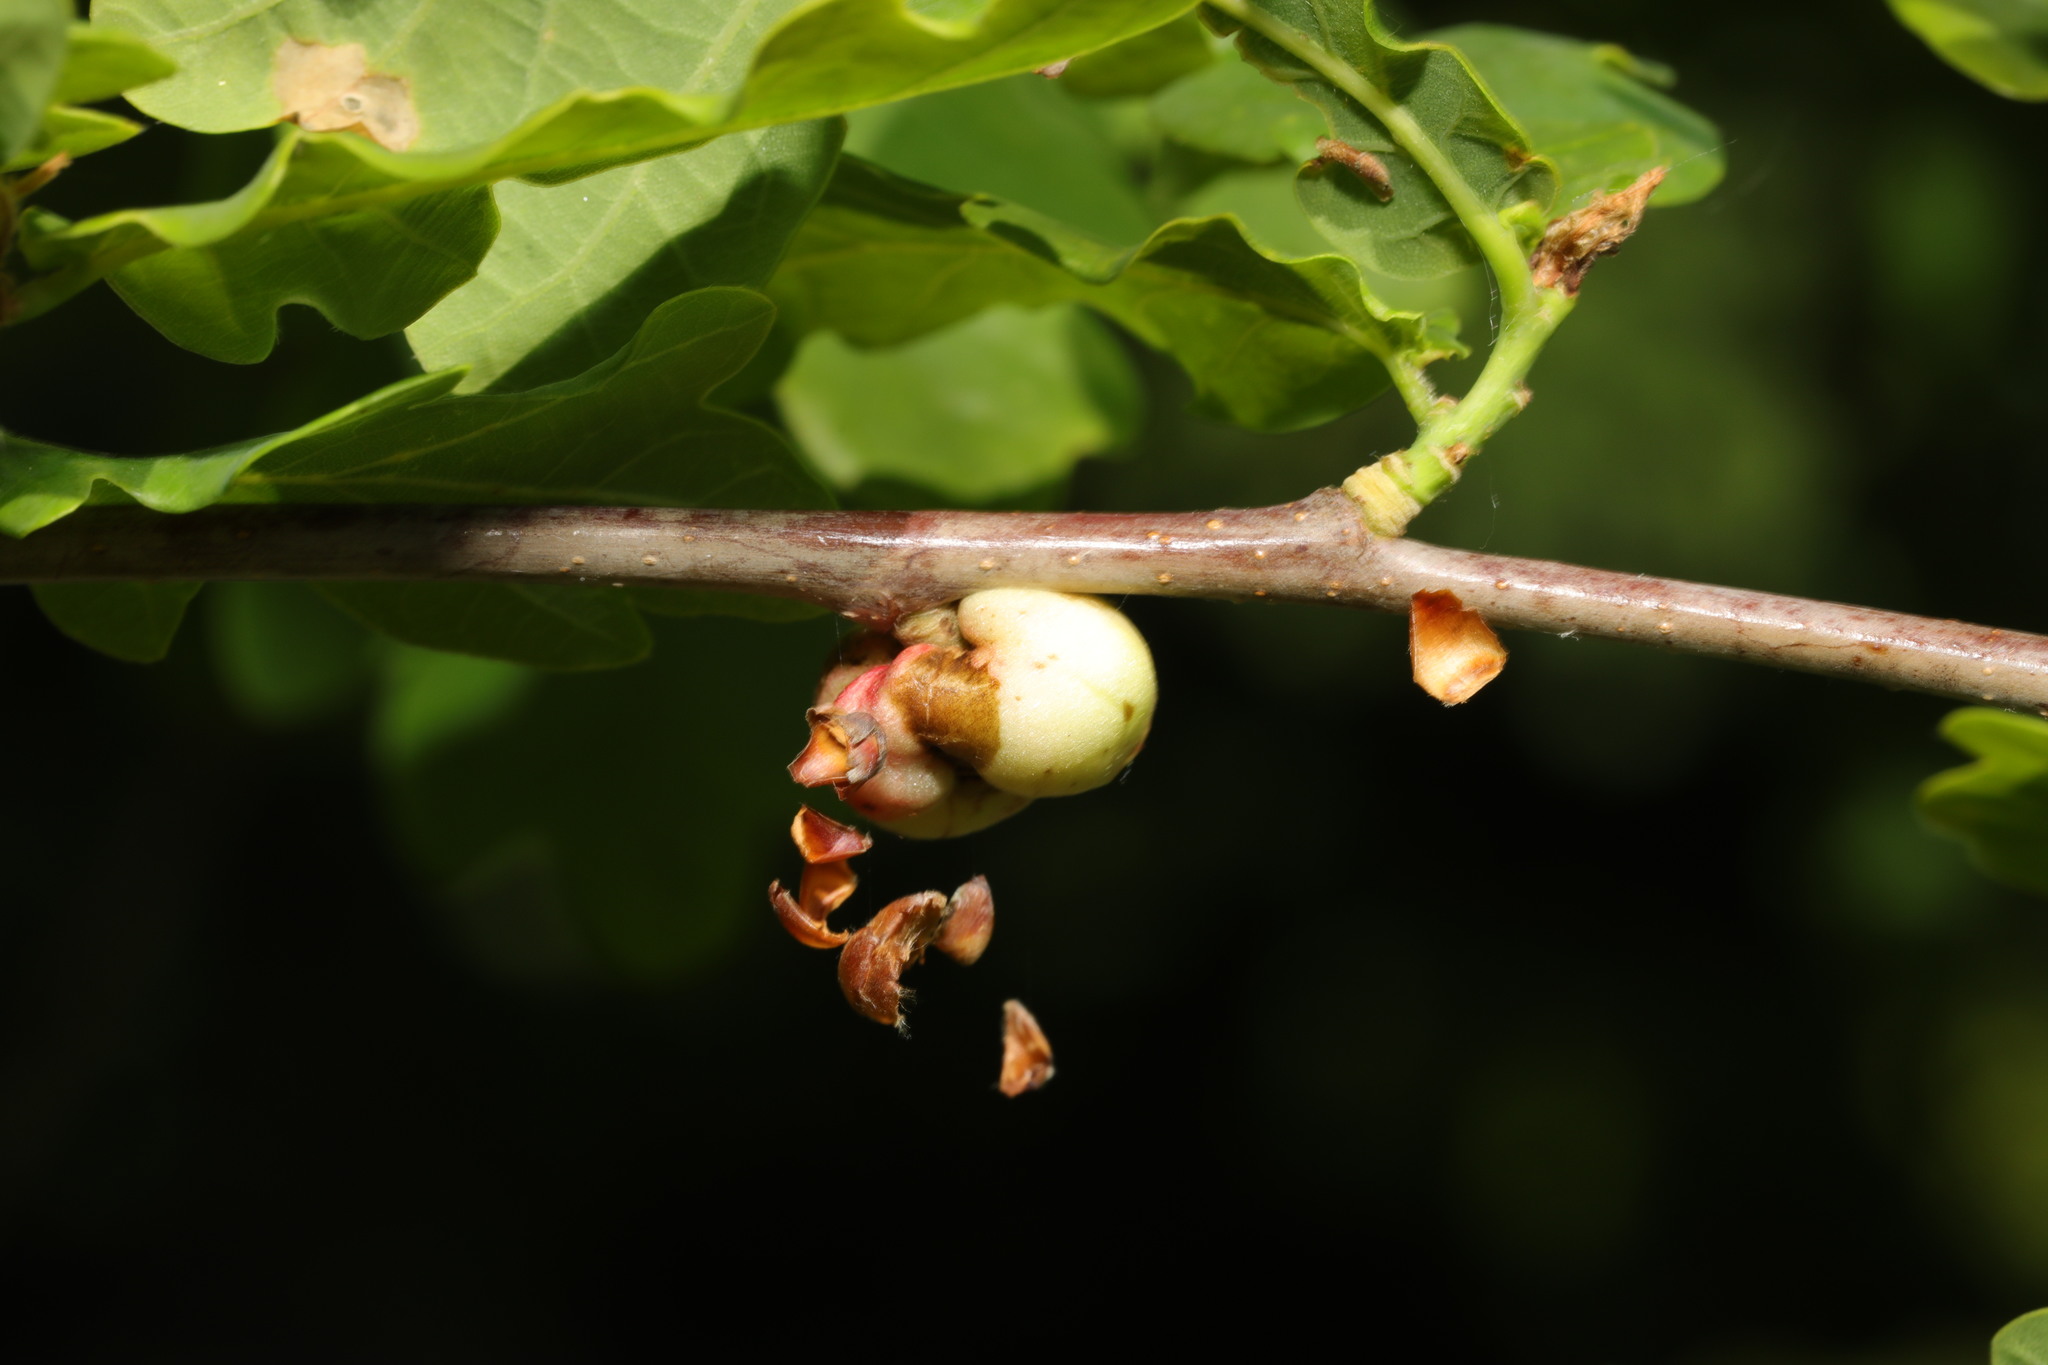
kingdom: Animalia
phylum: Arthropoda
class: Insecta
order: Hymenoptera
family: Cynipidae
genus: Biorhiza
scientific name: Biorhiza pallida
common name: Oak apple
